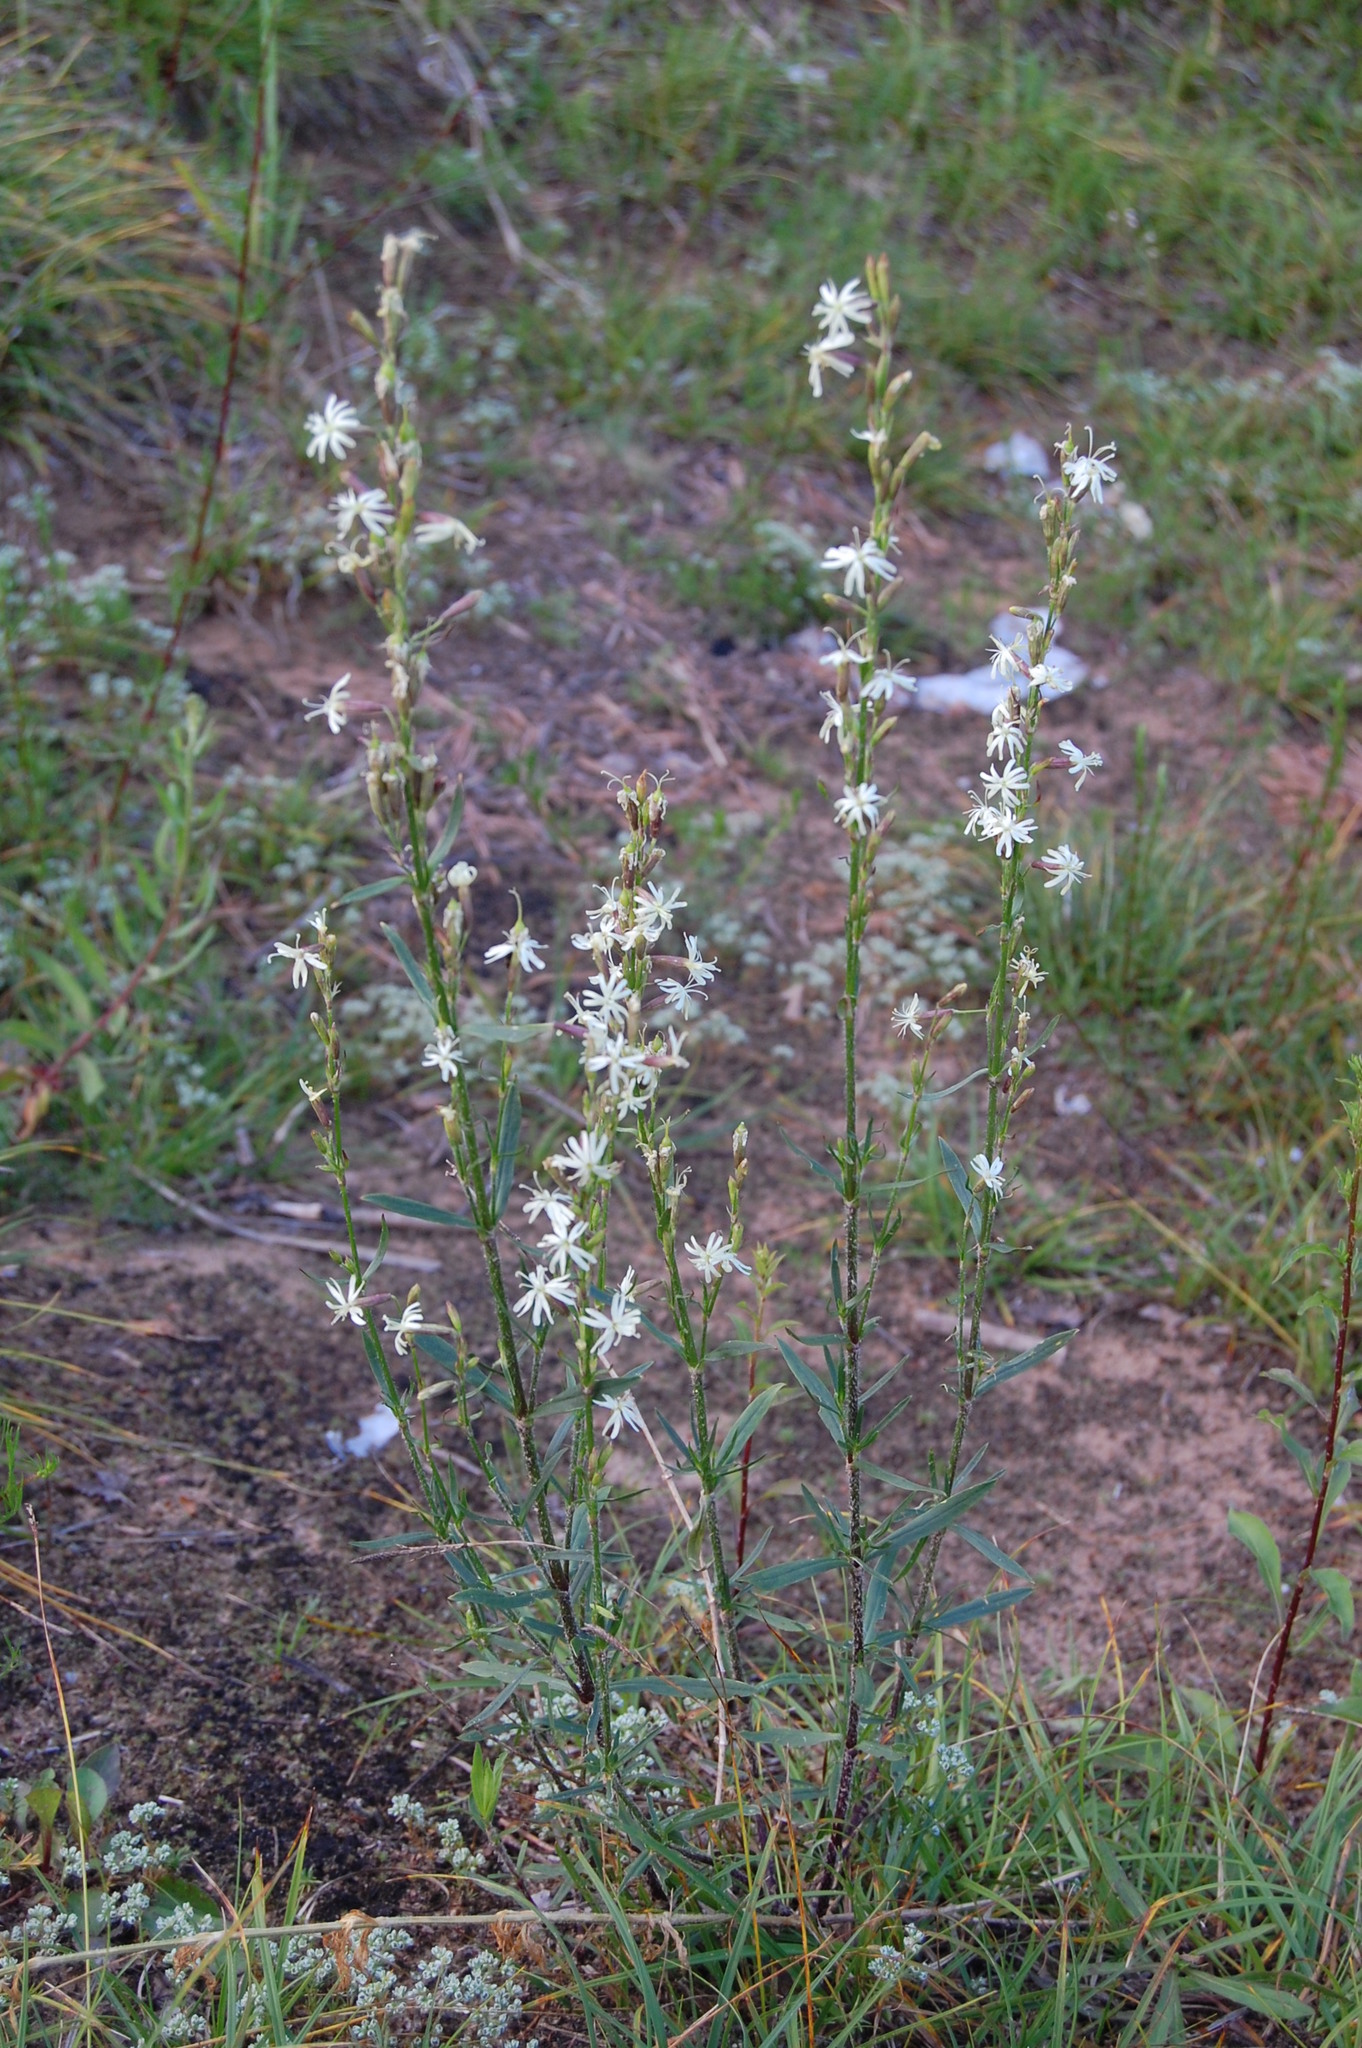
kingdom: Plantae
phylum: Tracheophyta
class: Magnoliopsida
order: Caryophyllales
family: Caryophyllaceae
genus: Silene
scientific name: Silene tatarica
